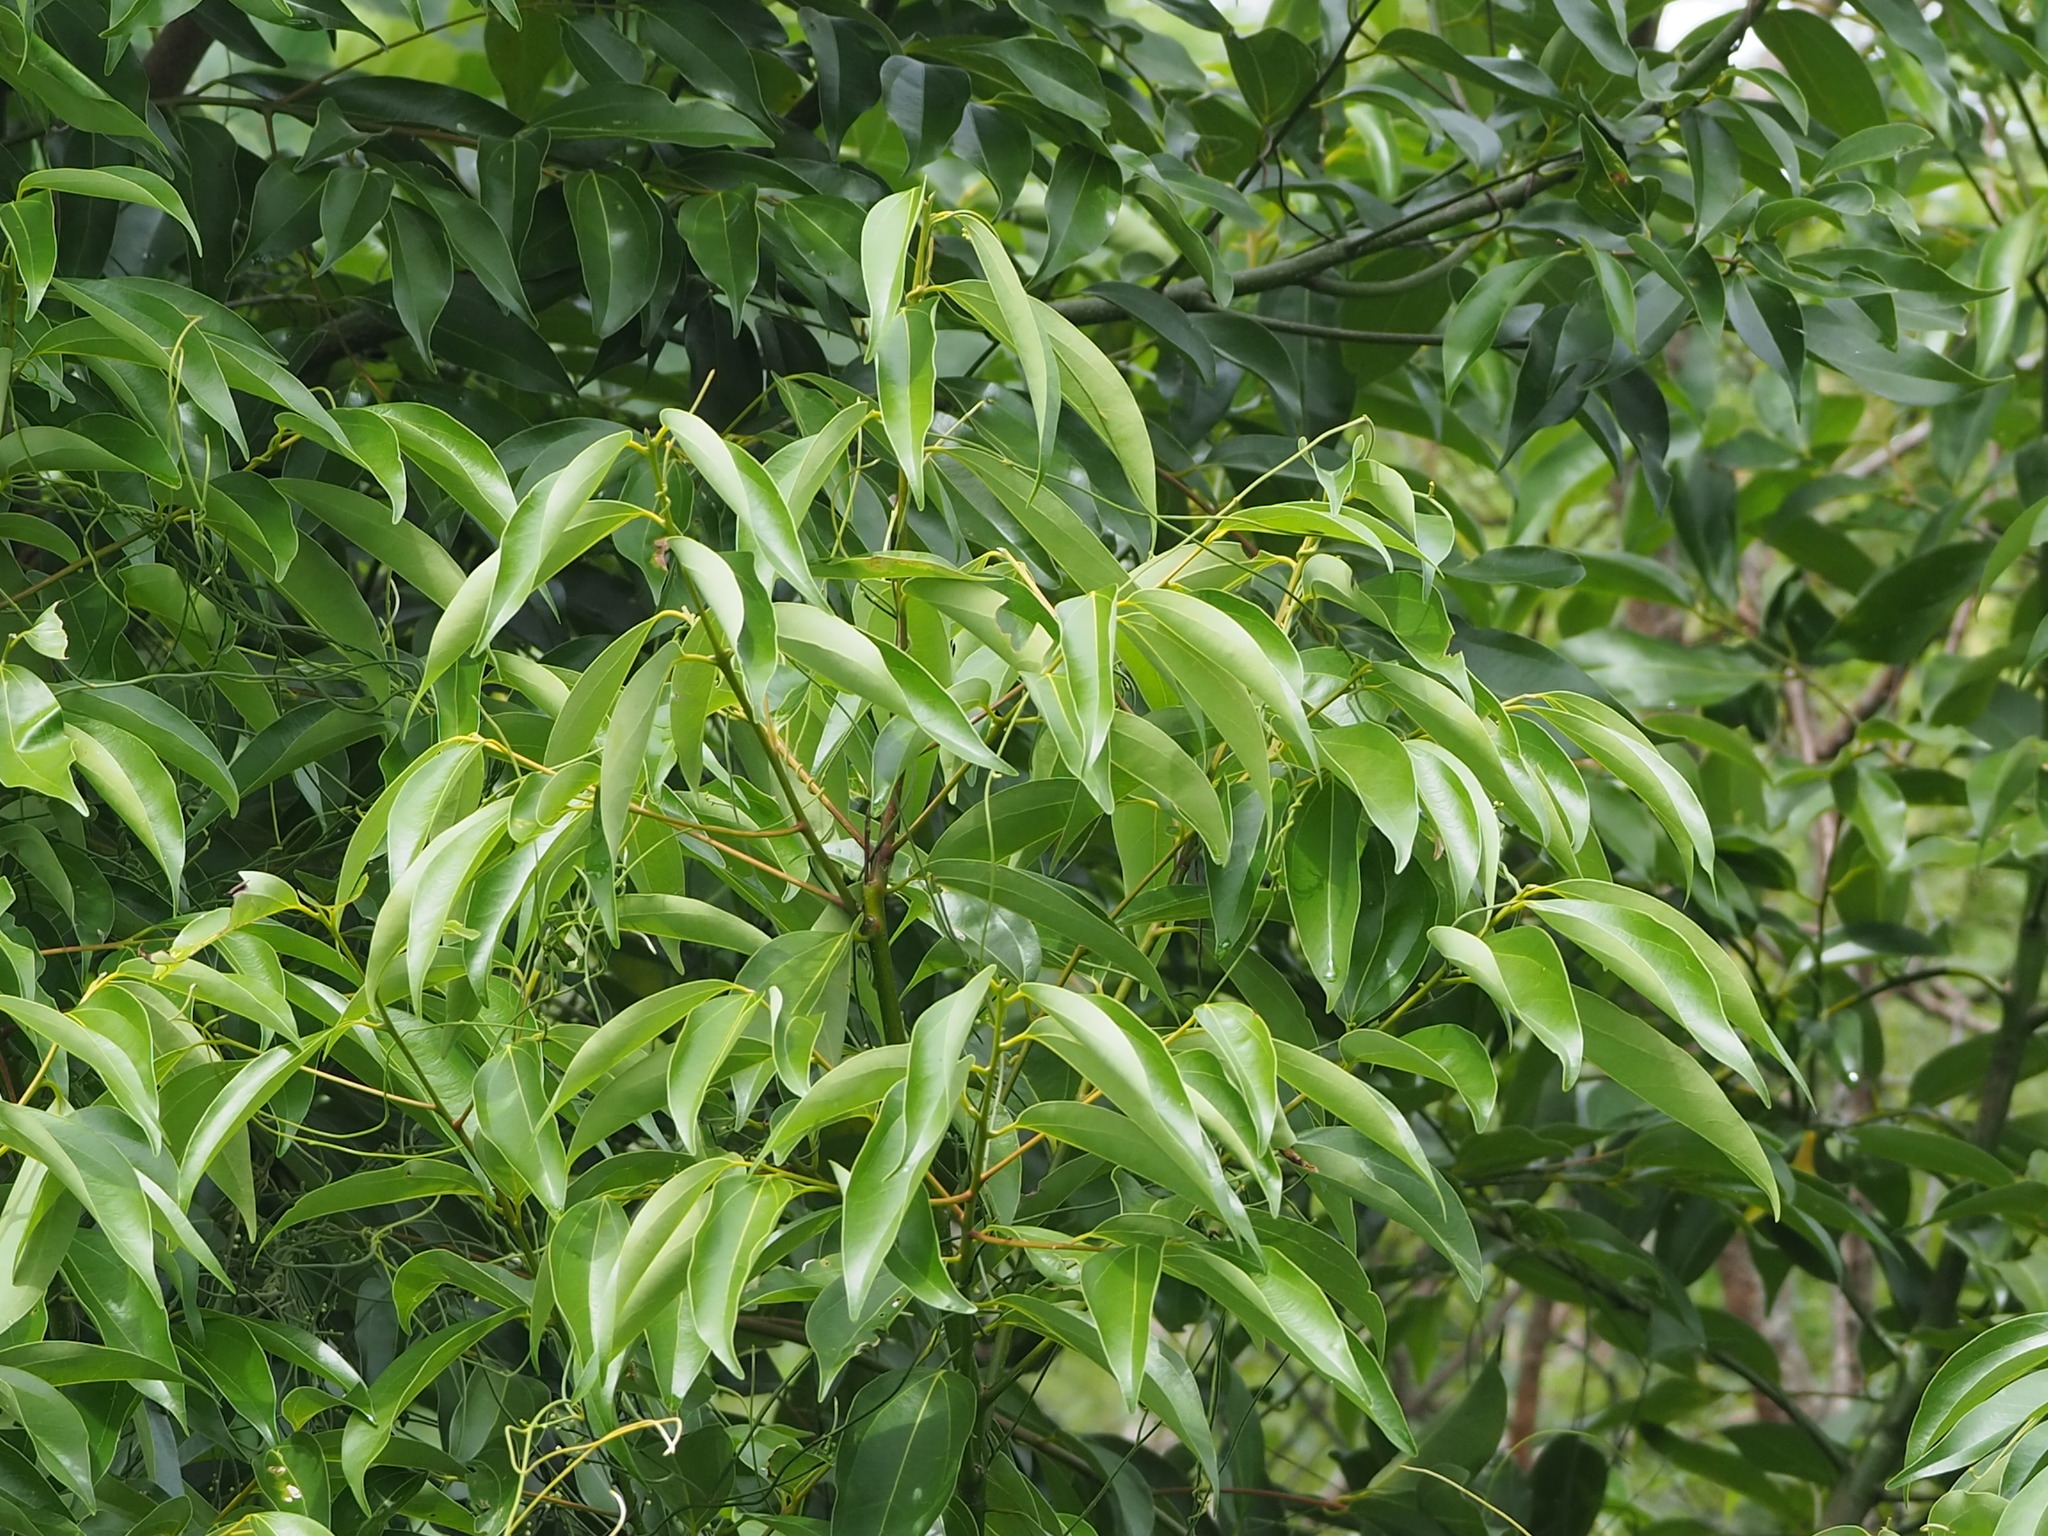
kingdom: Plantae
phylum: Tracheophyta
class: Magnoliopsida
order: Laurales
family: Lauraceae
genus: Cinnamomum
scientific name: Cinnamomum burmanni
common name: Padang cassia
